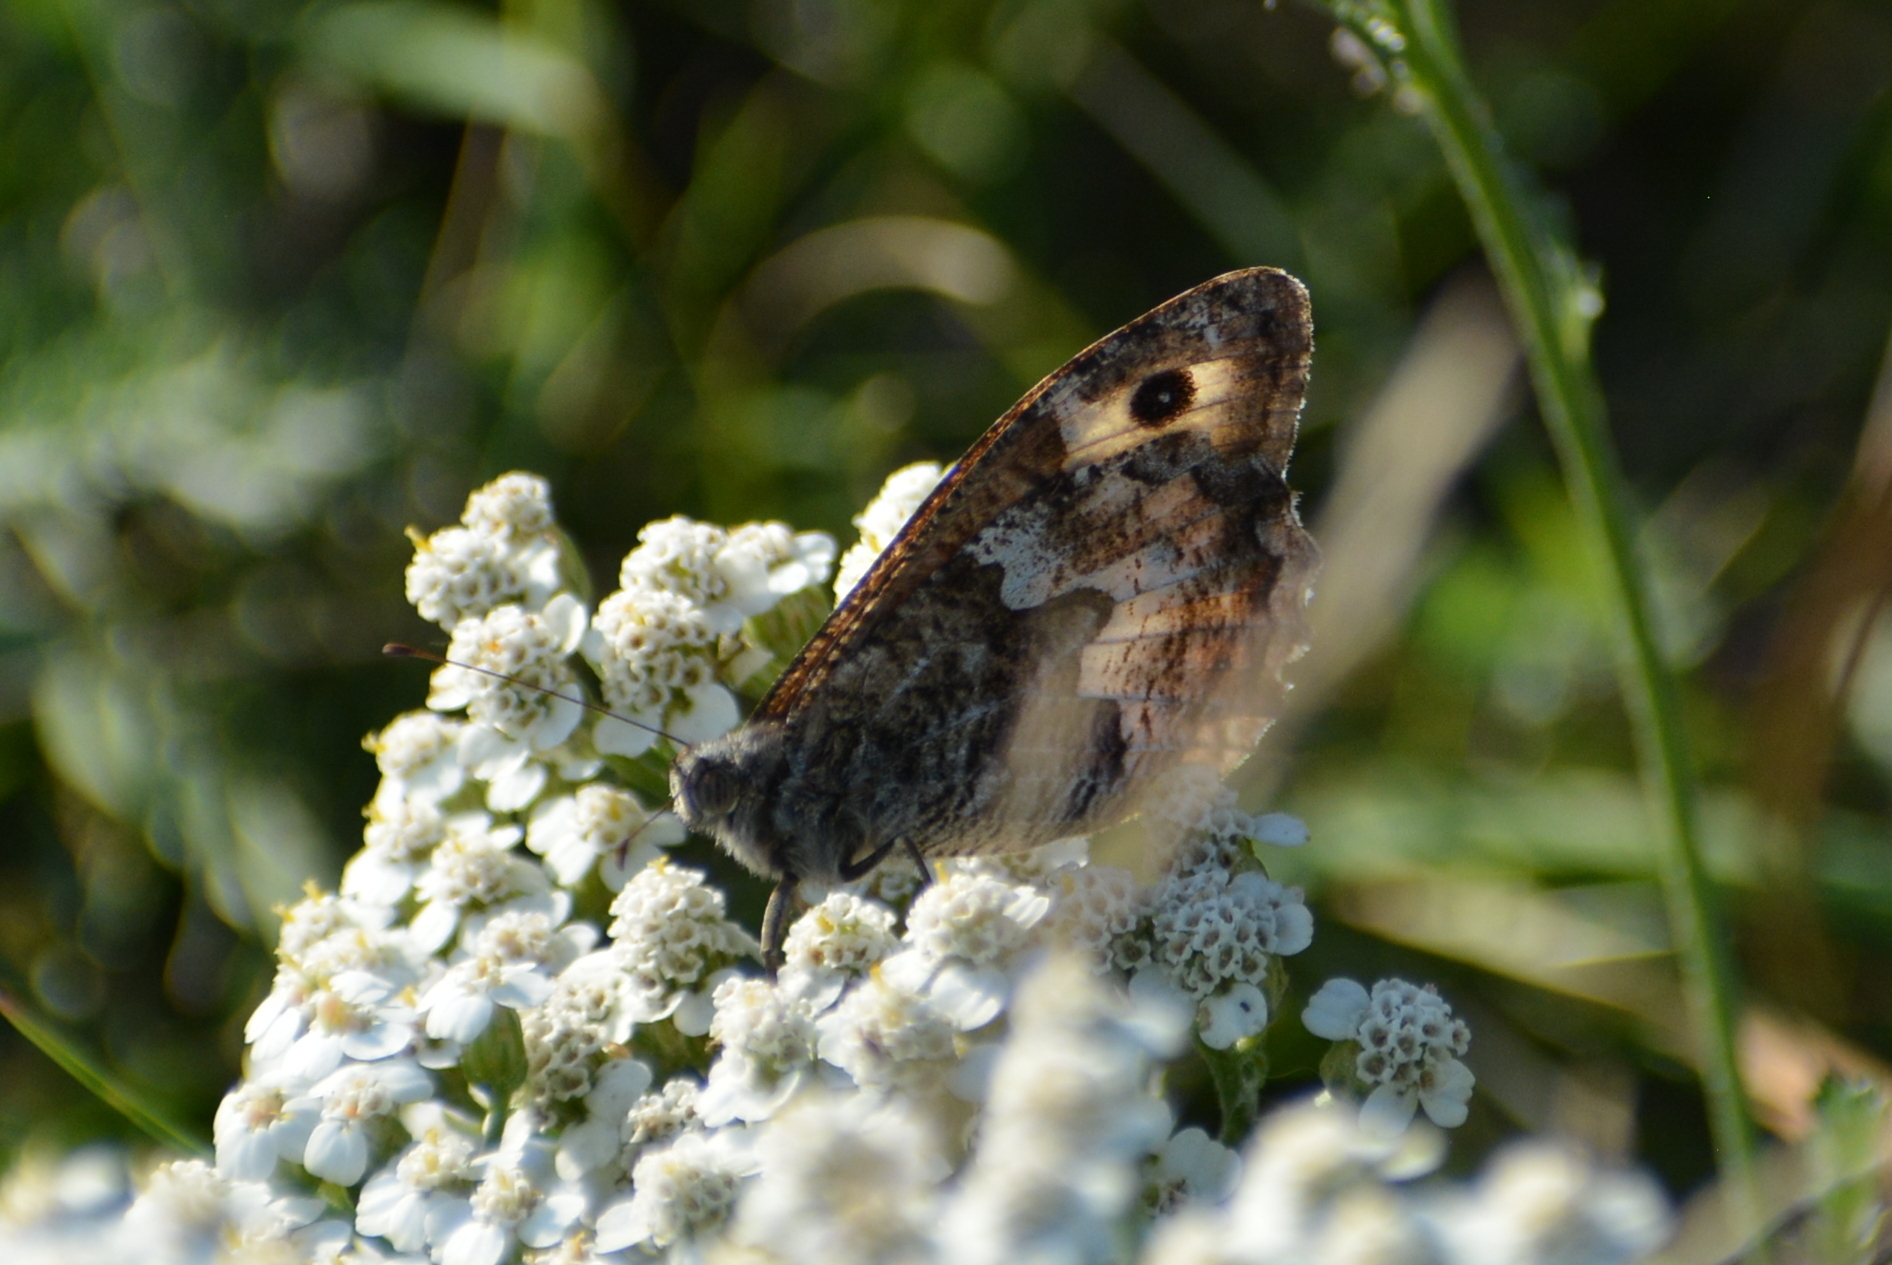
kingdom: Animalia
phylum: Arthropoda
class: Insecta
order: Lepidoptera
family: Nymphalidae
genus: Hipparchia
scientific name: Hipparchia semele
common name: Grayling
